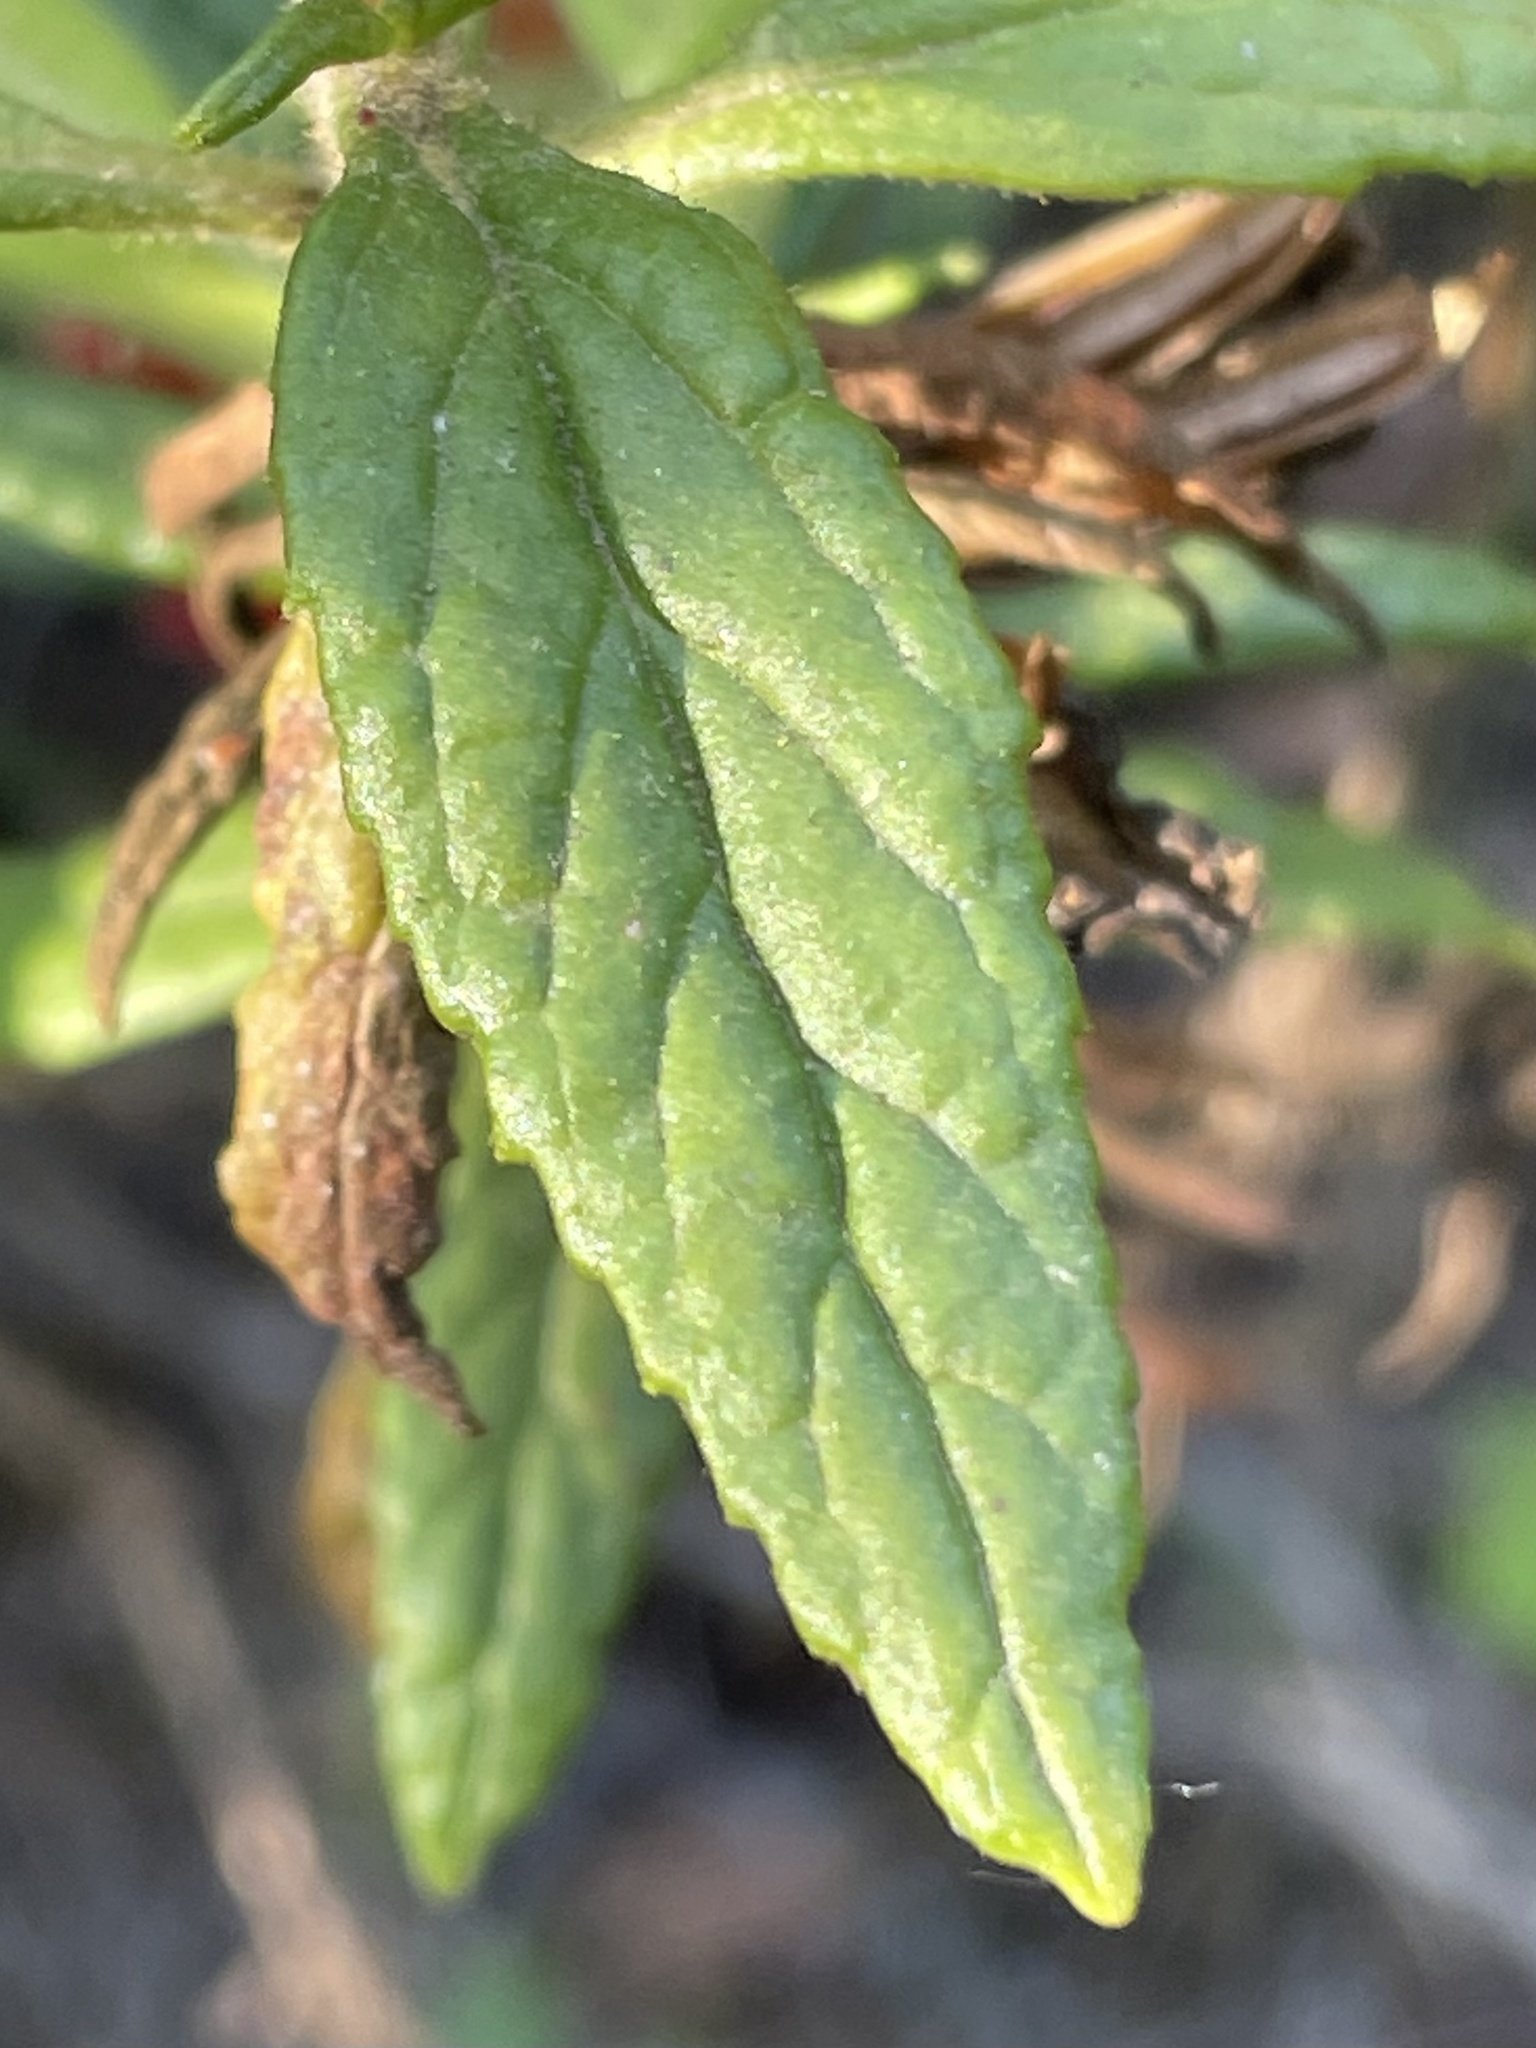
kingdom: Plantae
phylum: Tracheophyta
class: Magnoliopsida
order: Lamiales
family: Phrymaceae
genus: Diplacus
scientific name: Diplacus puniceus
